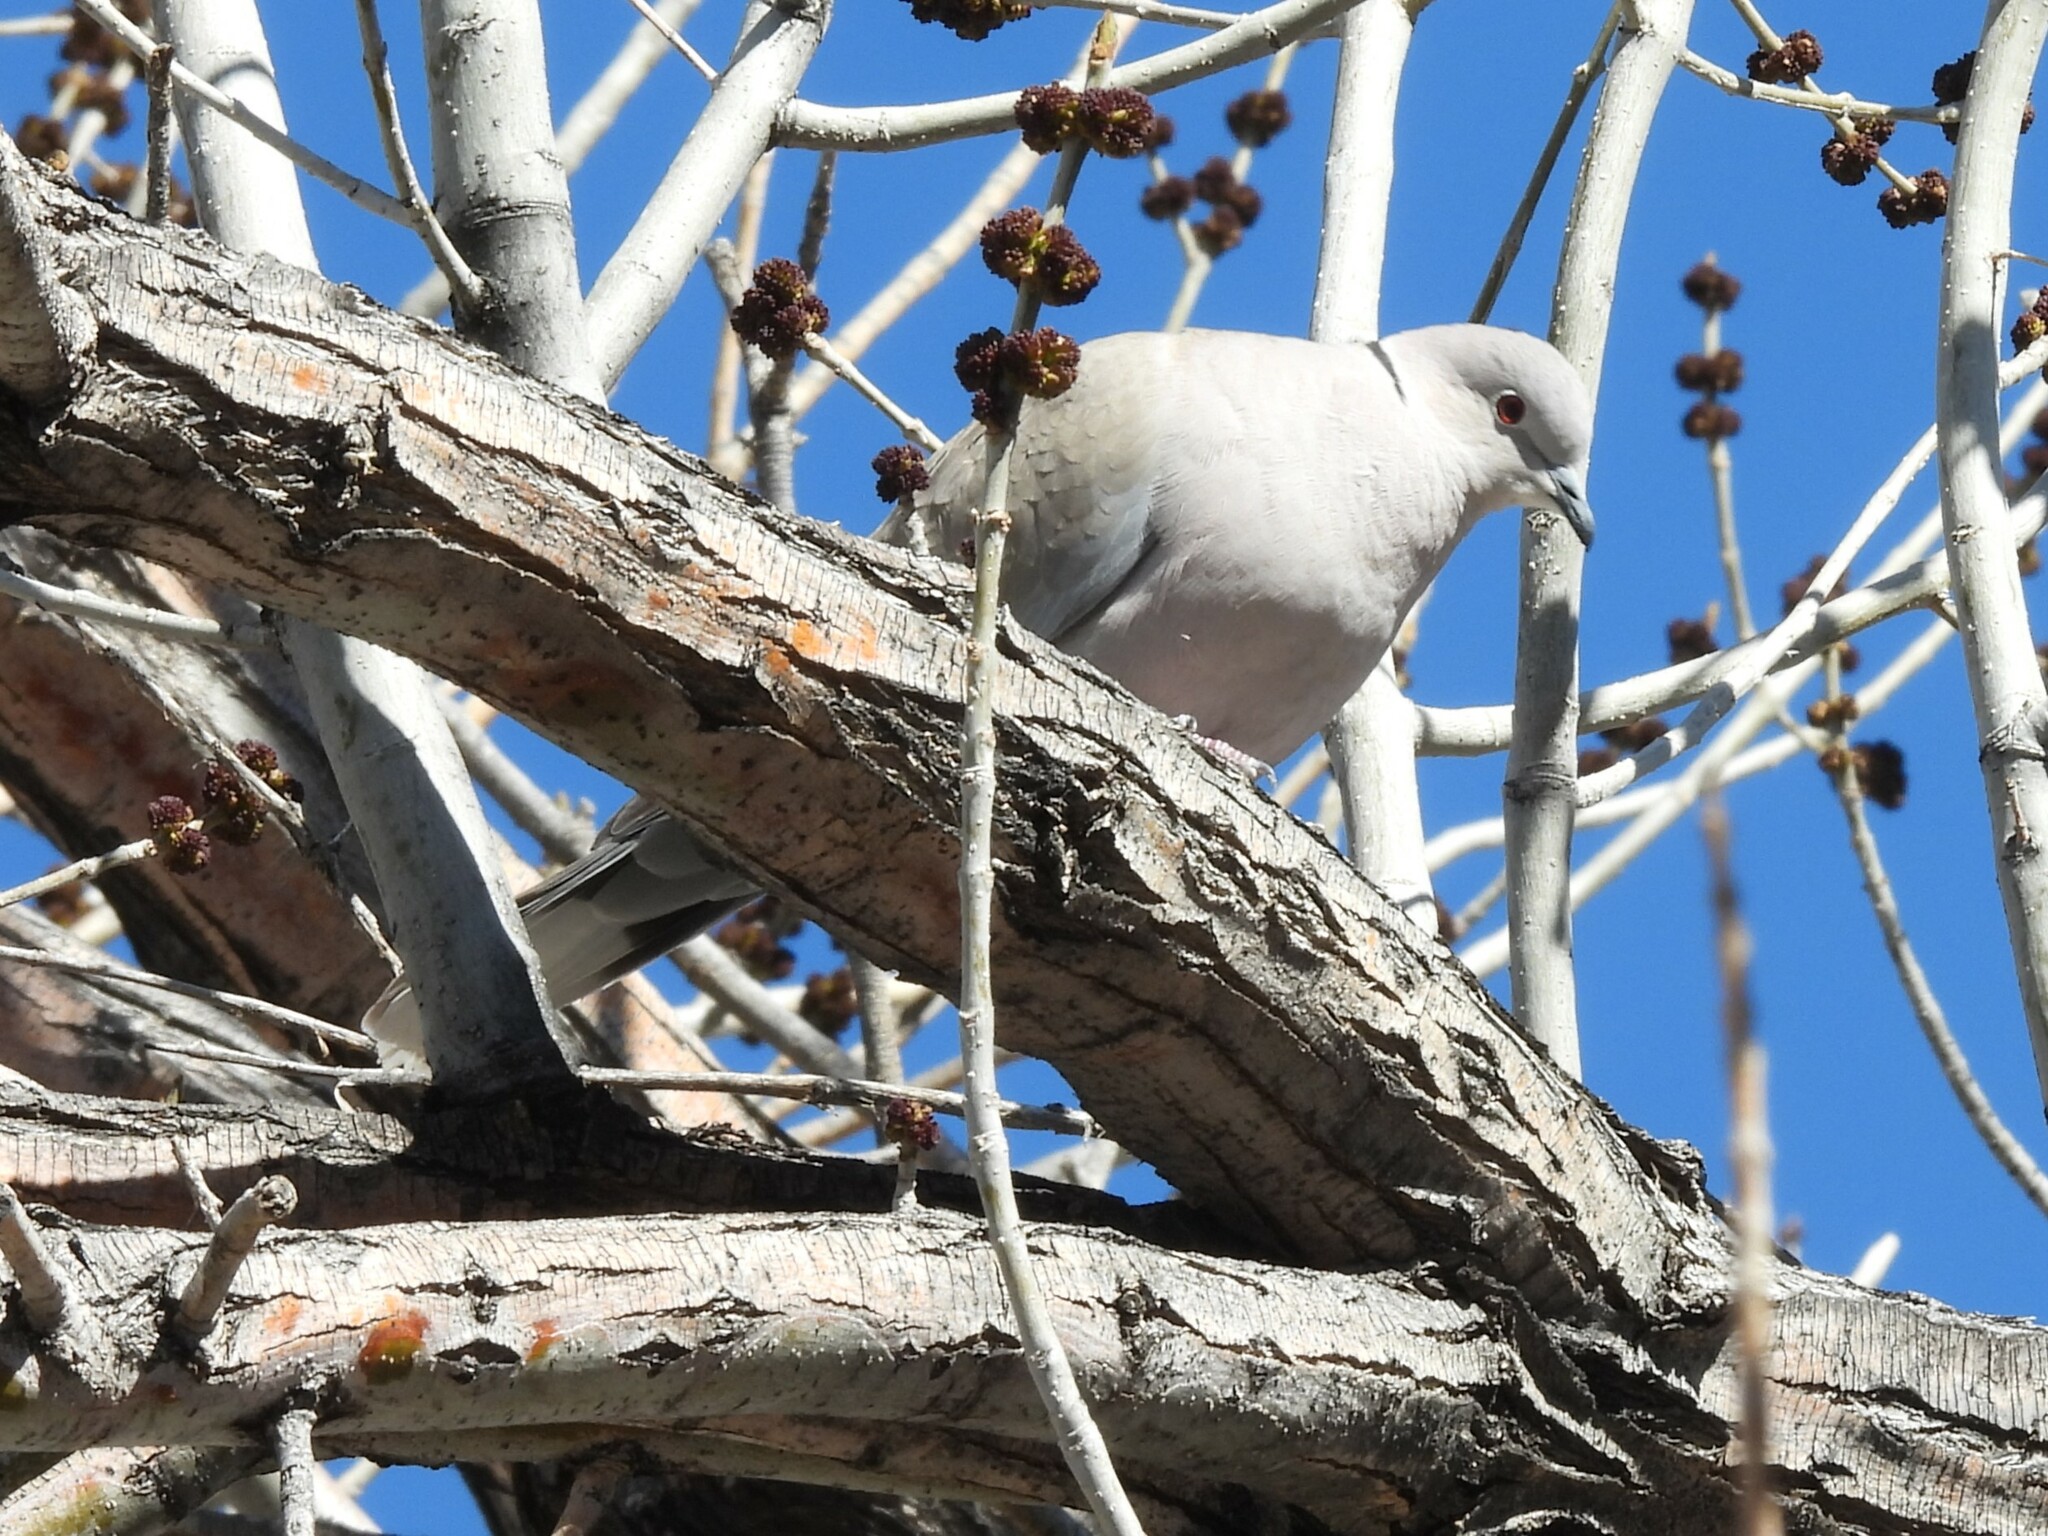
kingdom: Animalia
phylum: Chordata
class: Aves
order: Columbiformes
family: Columbidae
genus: Streptopelia
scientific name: Streptopelia decaocto
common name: Eurasian collared dove
